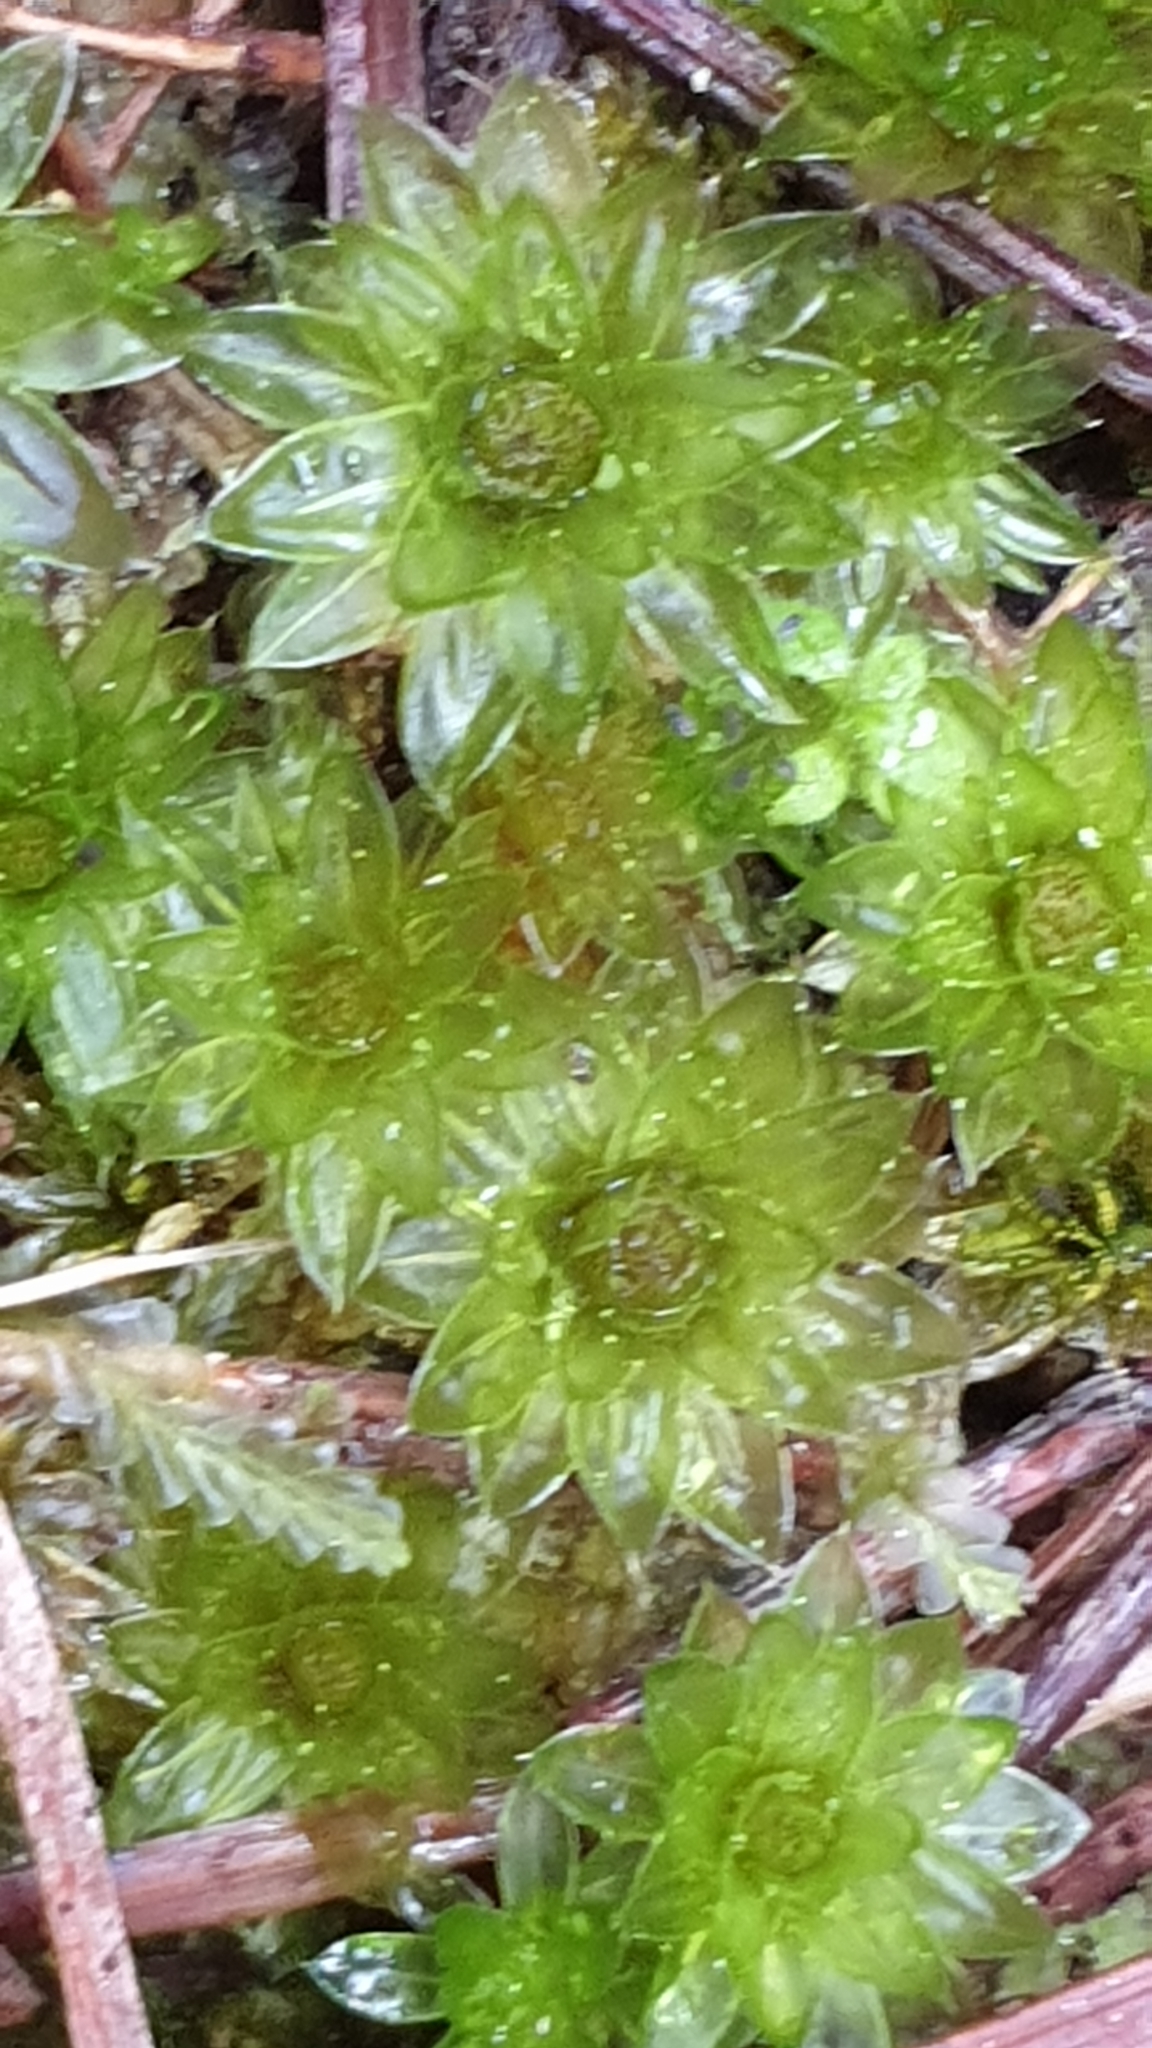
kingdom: Plantae
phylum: Bryophyta
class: Bryopsida
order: Bryales
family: Bryaceae
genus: Rosulabryum
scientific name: Rosulabryum billardierei
